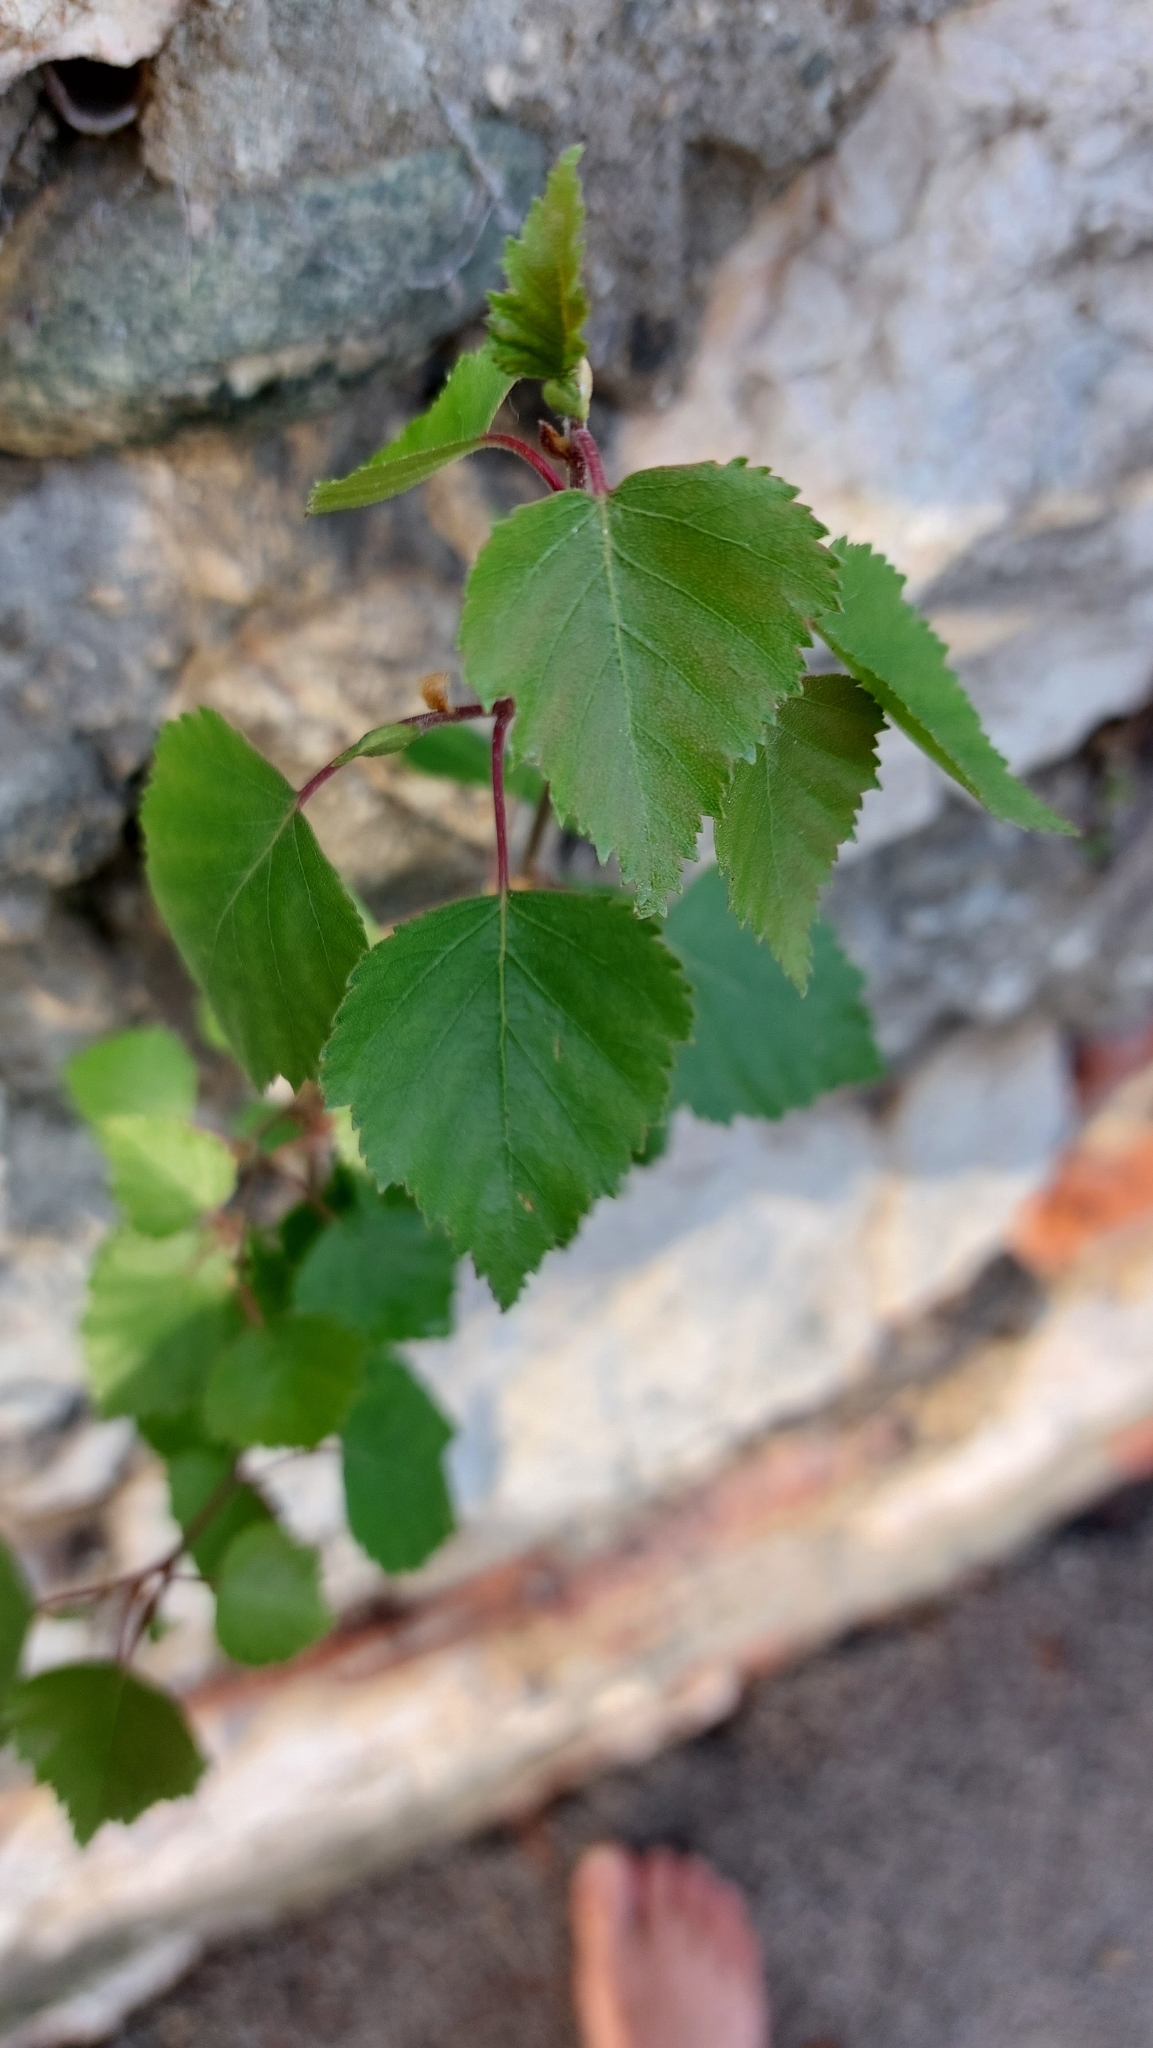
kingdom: Plantae
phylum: Tracheophyta
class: Magnoliopsida
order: Fagales
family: Betulaceae
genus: Betula
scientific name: Betula pendula
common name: Silver birch
